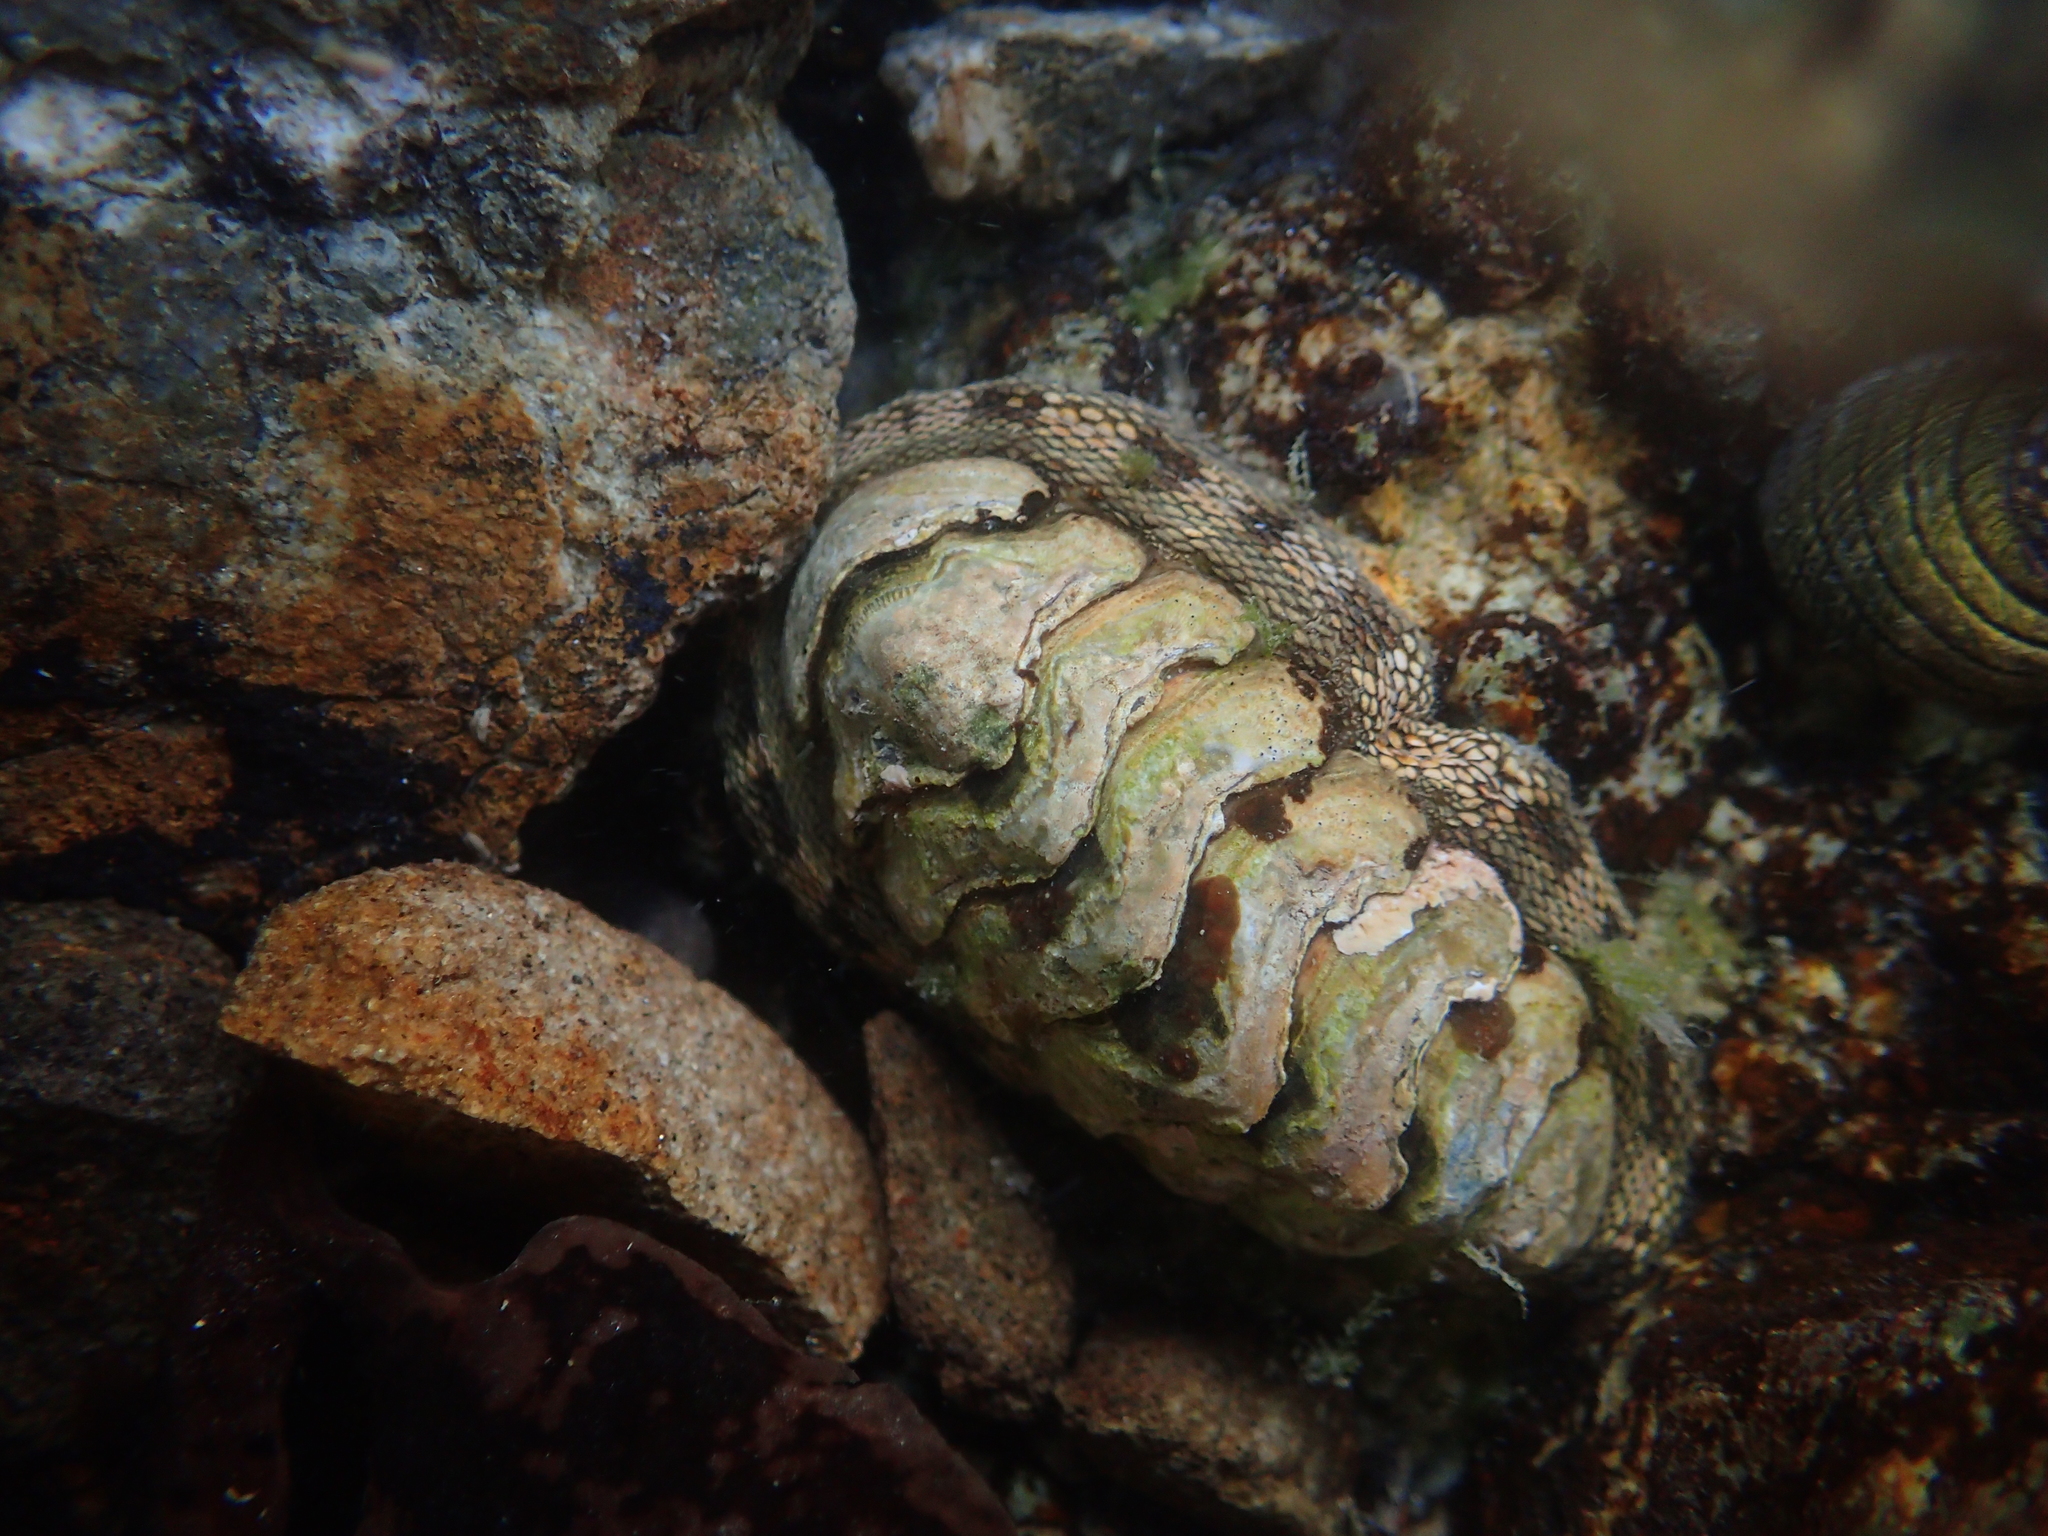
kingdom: Animalia
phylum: Mollusca
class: Polyplacophora
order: Chitonida
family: Chitonidae
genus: Sypharochiton
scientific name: Sypharochiton pelliserpentis
